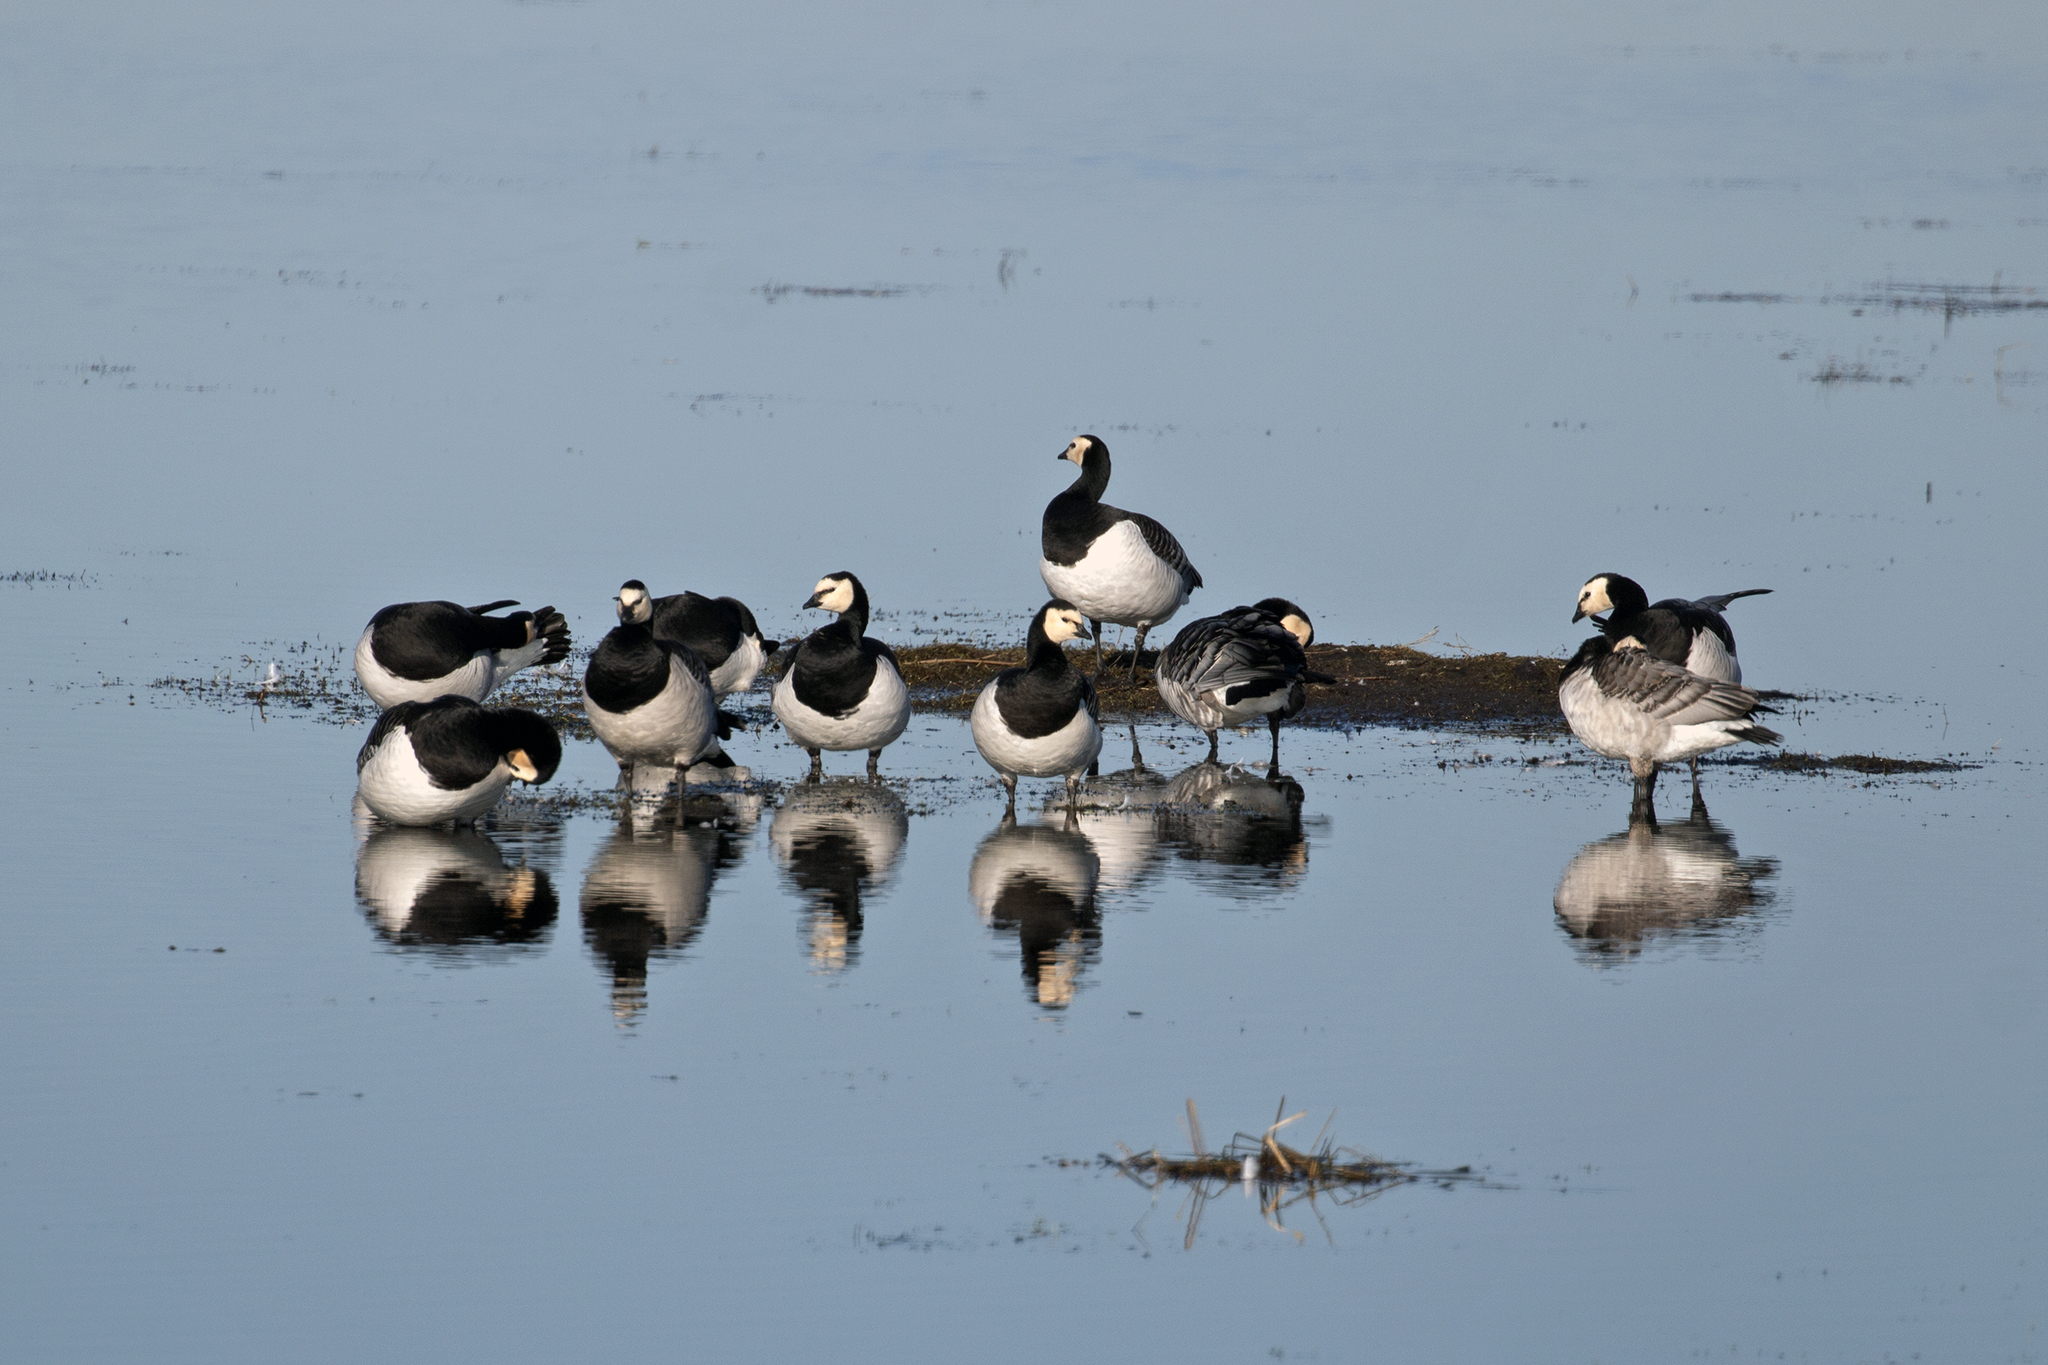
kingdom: Animalia
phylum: Chordata
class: Aves
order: Anseriformes
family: Anatidae
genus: Branta
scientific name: Branta leucopsis
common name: Barnacle goose
